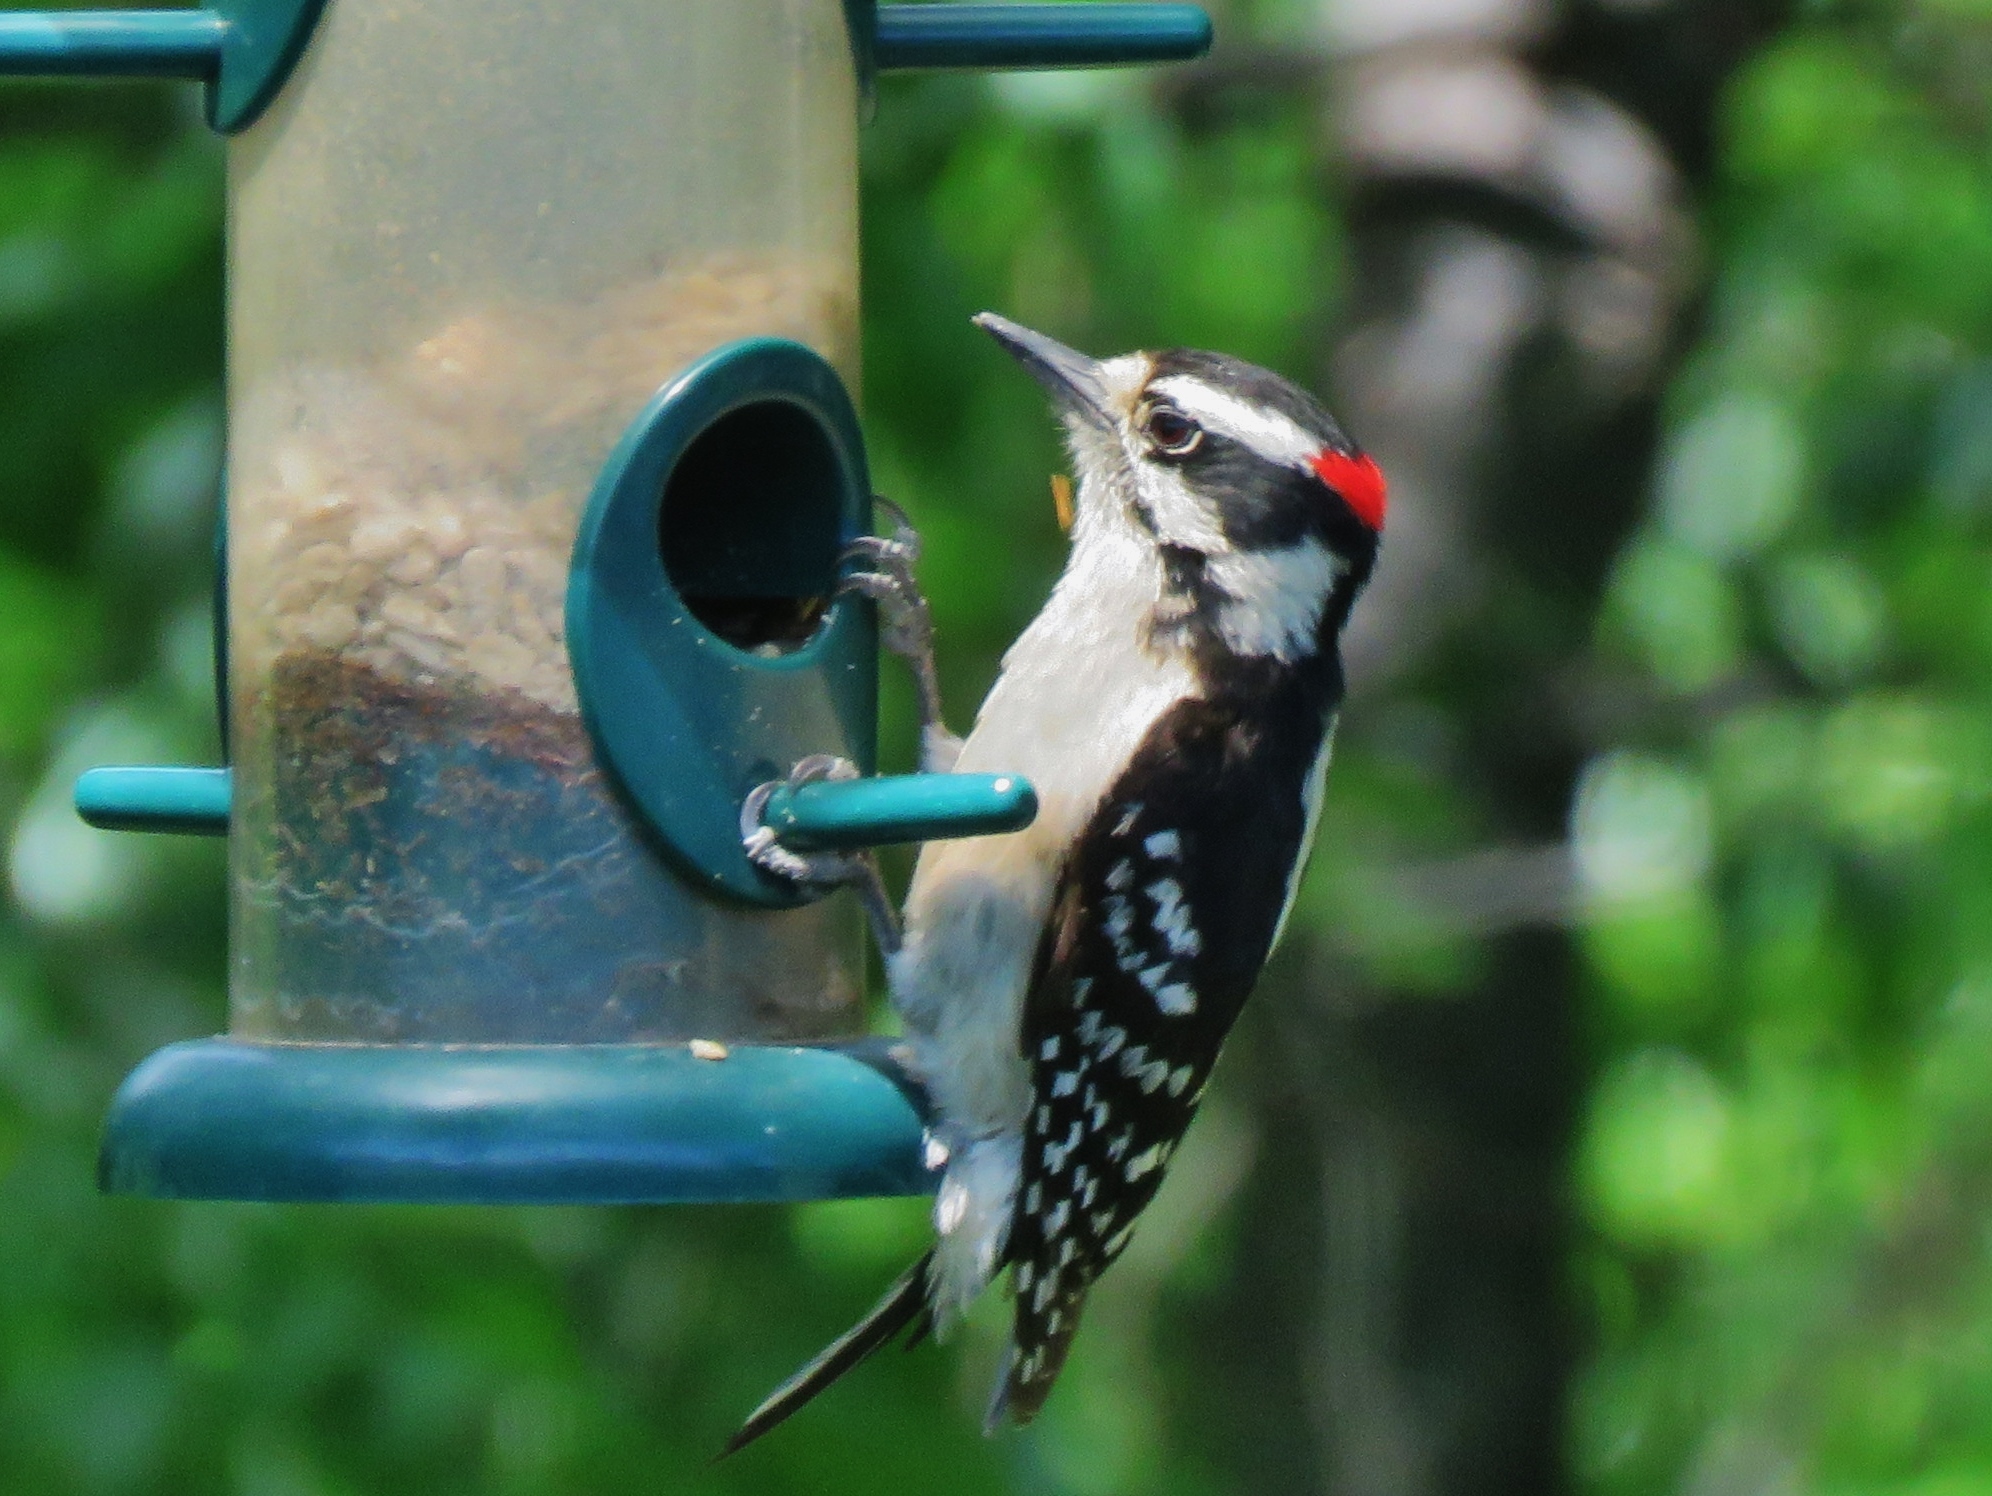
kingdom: Animalia
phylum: Chordata
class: Aves
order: Piciformes
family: Picidae
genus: Dryobates
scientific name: Dryobates pubescens
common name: Downy woodpecker
